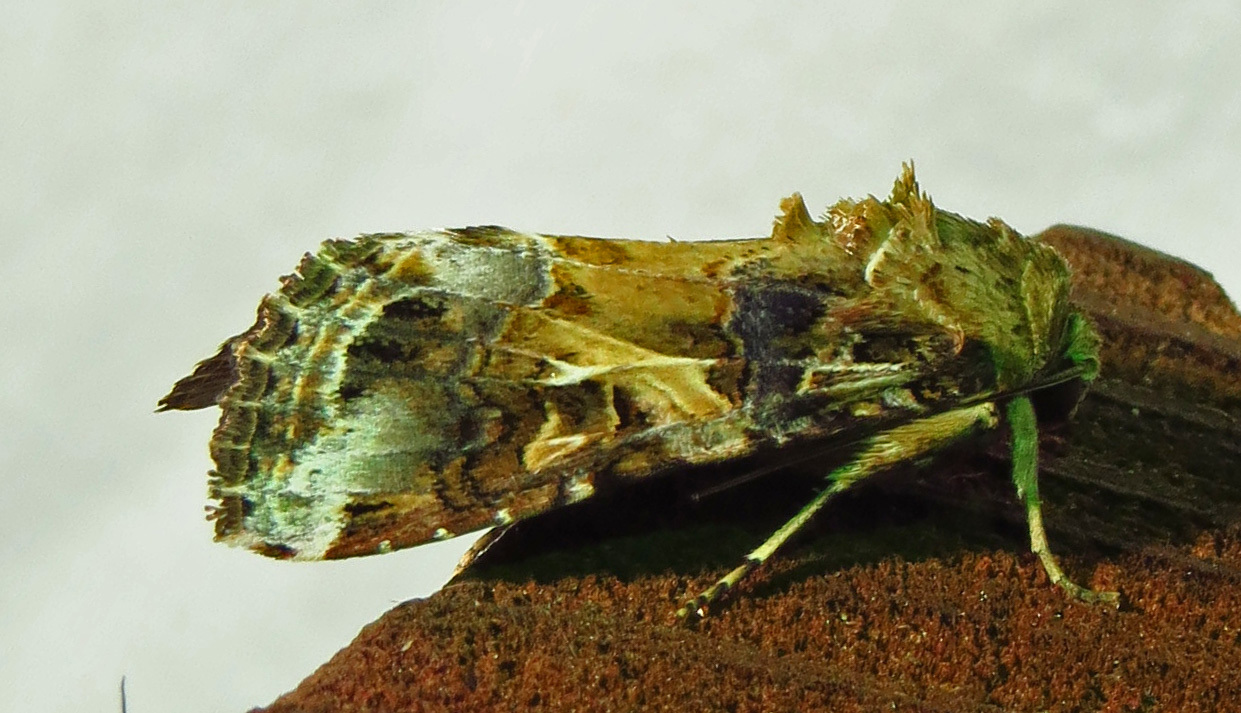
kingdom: Animalia
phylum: Arthropoda
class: Insecta
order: Lepidoptera
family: Noctuidae
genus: Spodoptera
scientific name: Spodoptera ornithogalli
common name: Yellow-striped armyworm
